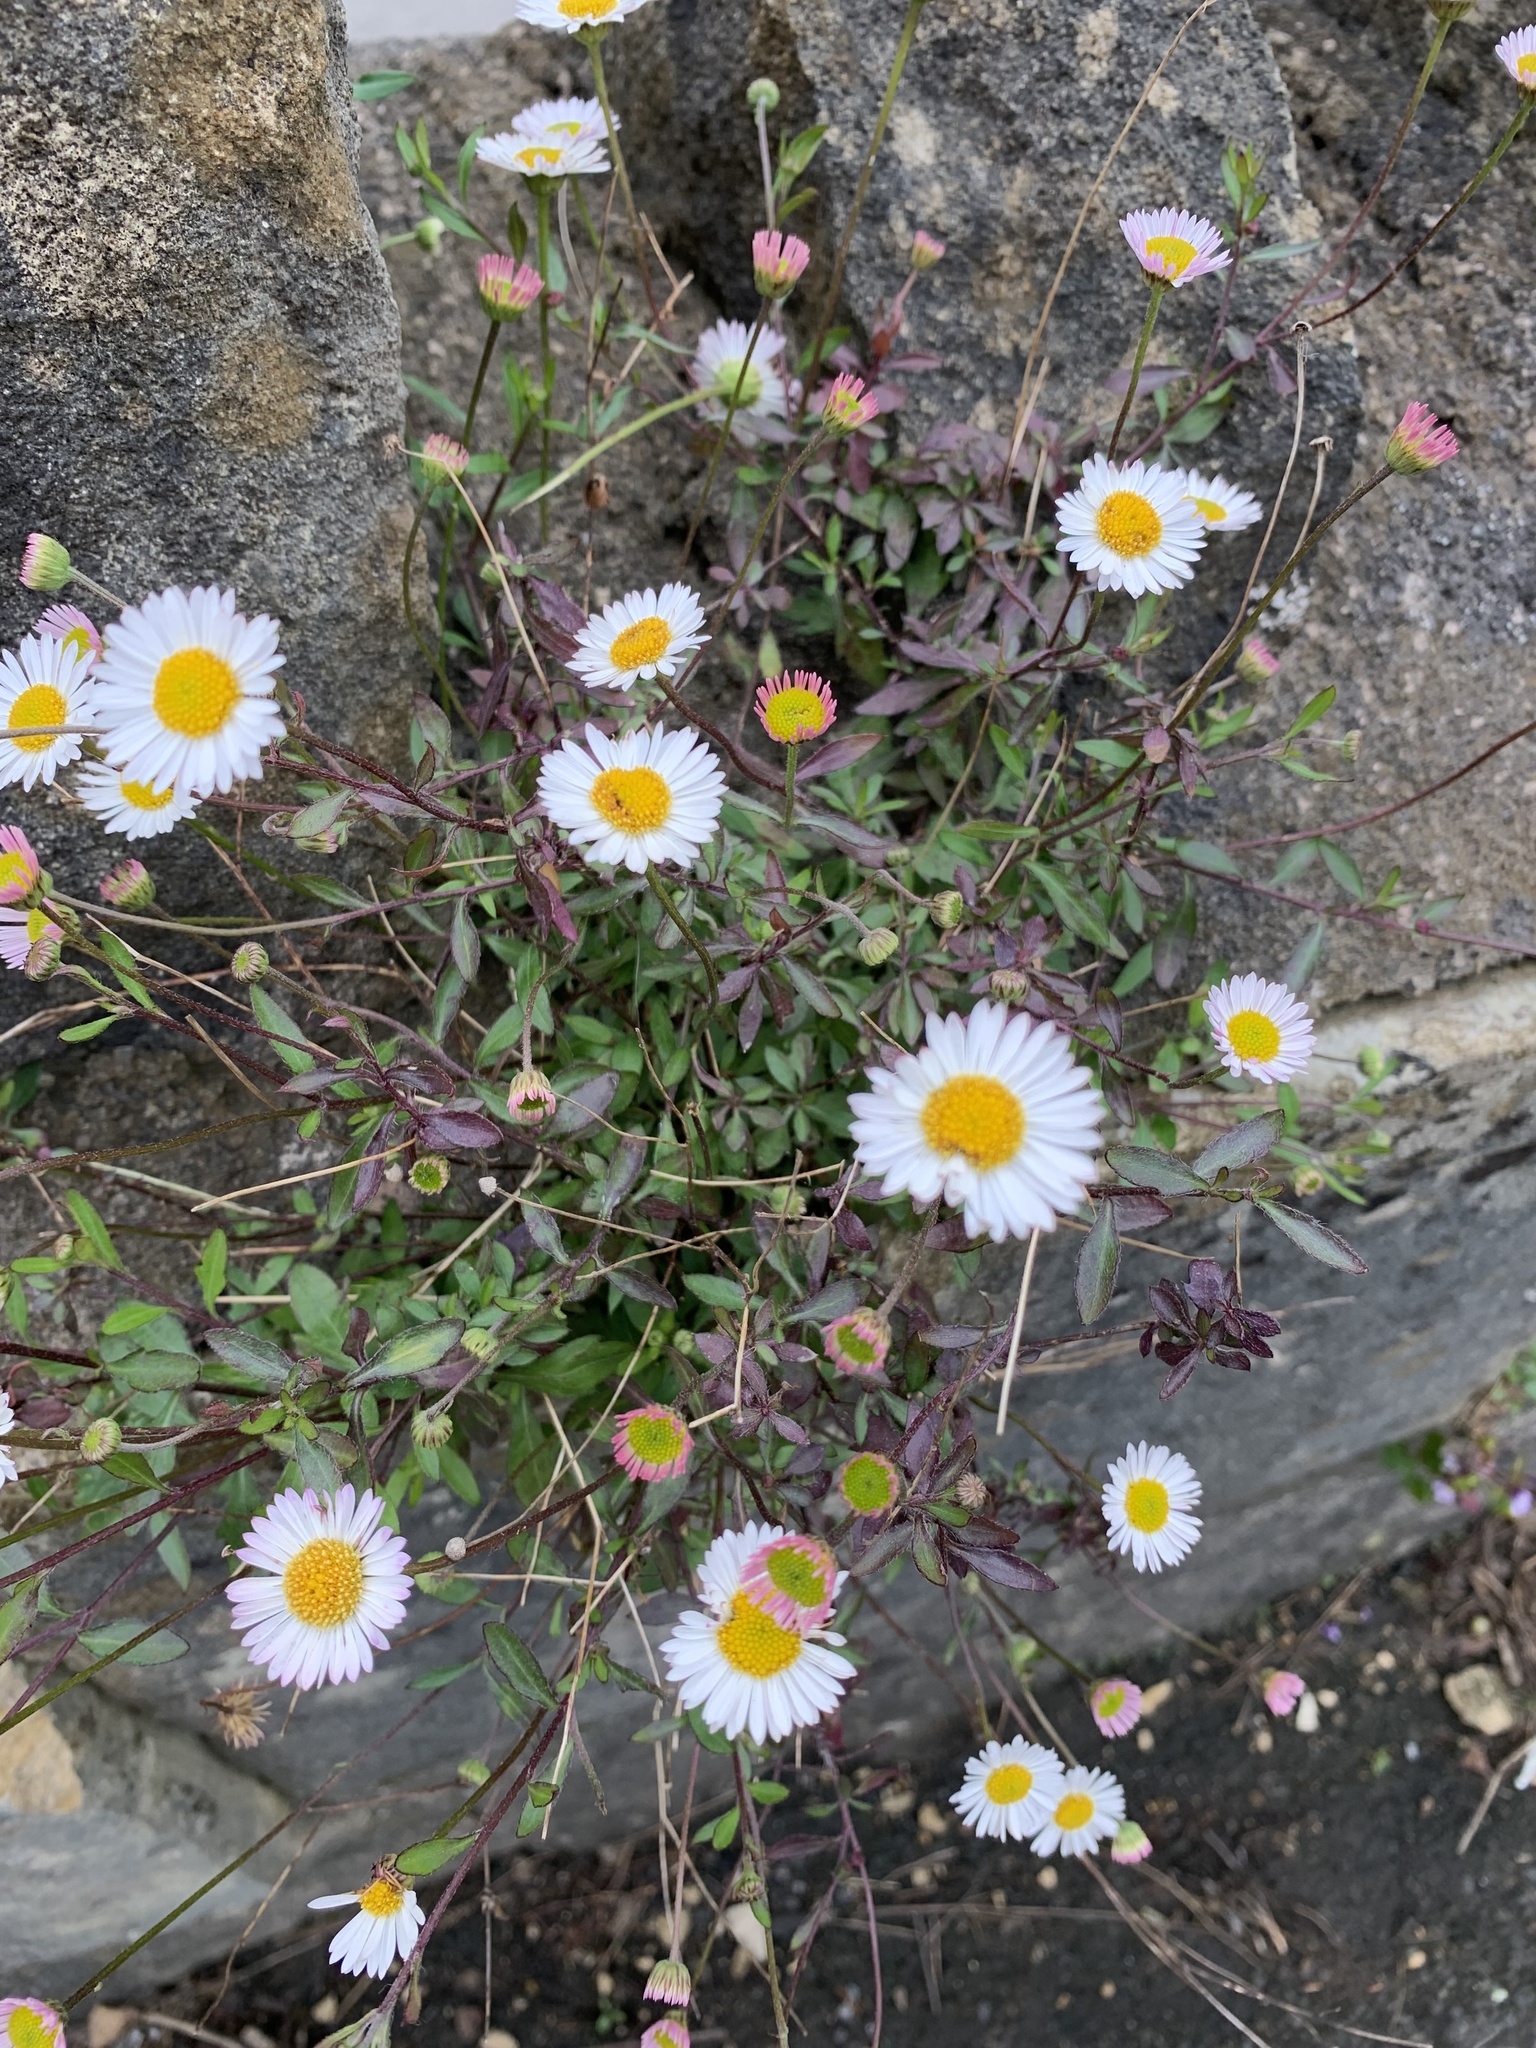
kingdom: Plantae
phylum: Tracheophyta
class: Magnoliopsida
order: Asterales
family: Asteraceae
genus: Erigeron
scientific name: Erigeron karvinskianus
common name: Mexican fleabane
